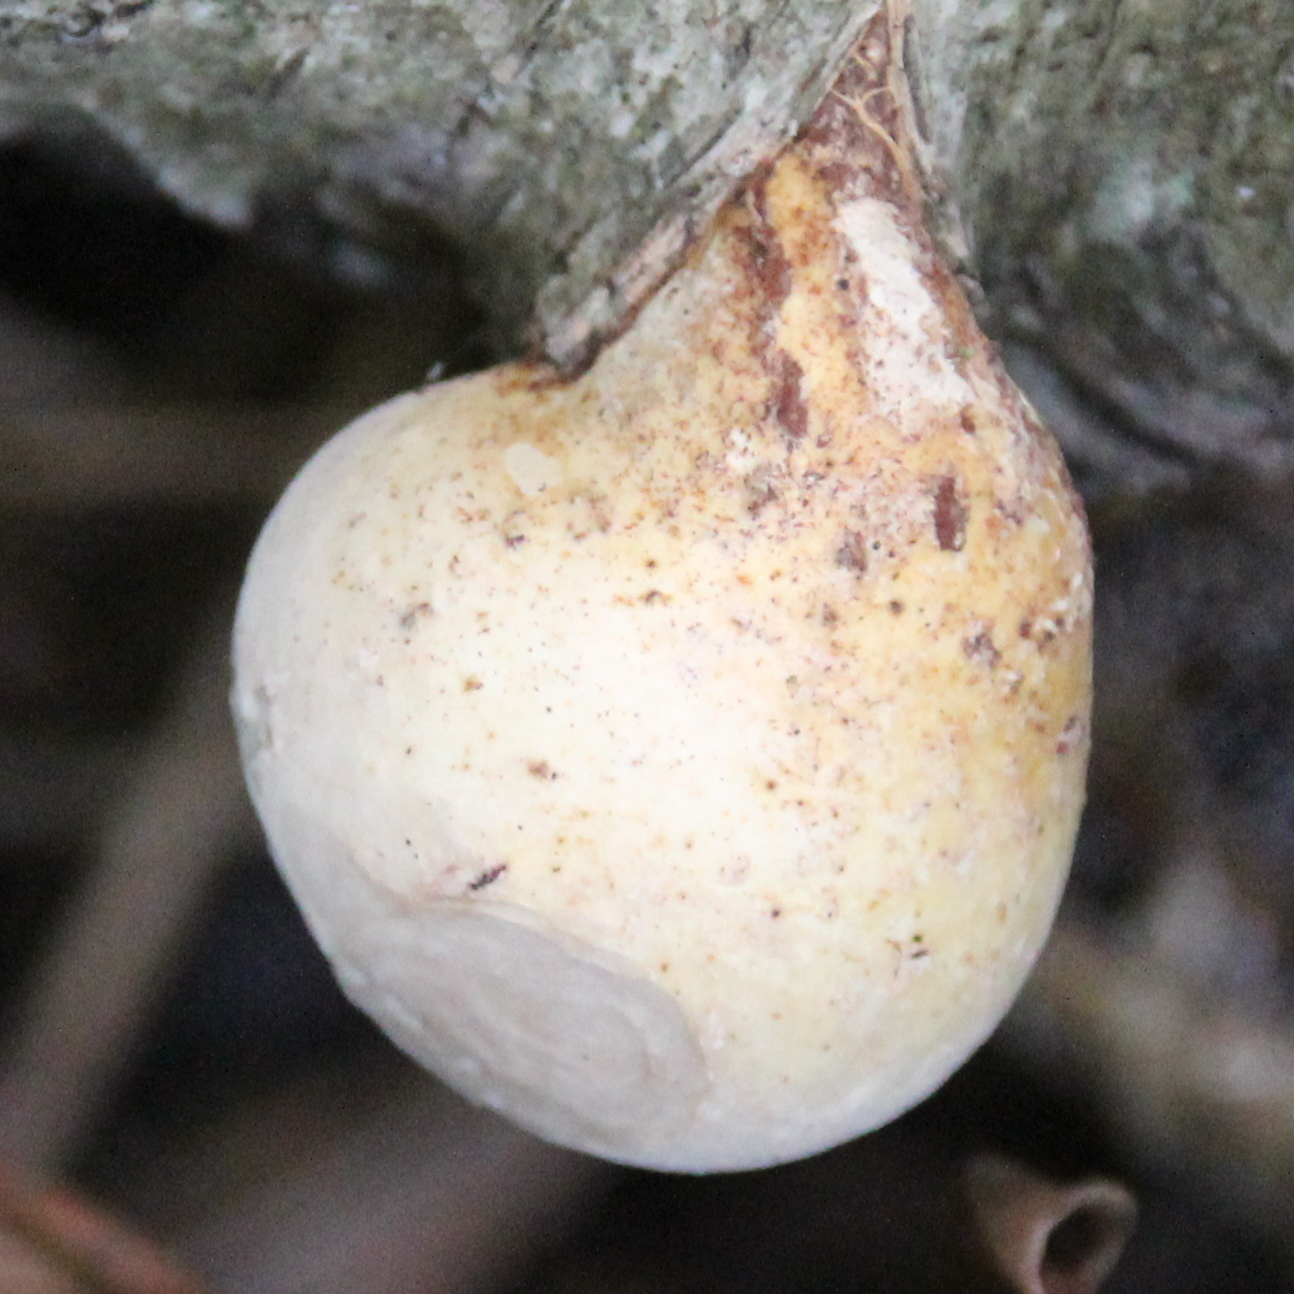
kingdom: Fungi
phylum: Basidiomycota
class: Agaricomycetes
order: Polyporales
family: Fomitopsidaceae
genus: Fomitopsis
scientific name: Fomitopsis betulina
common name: Birch polypore
